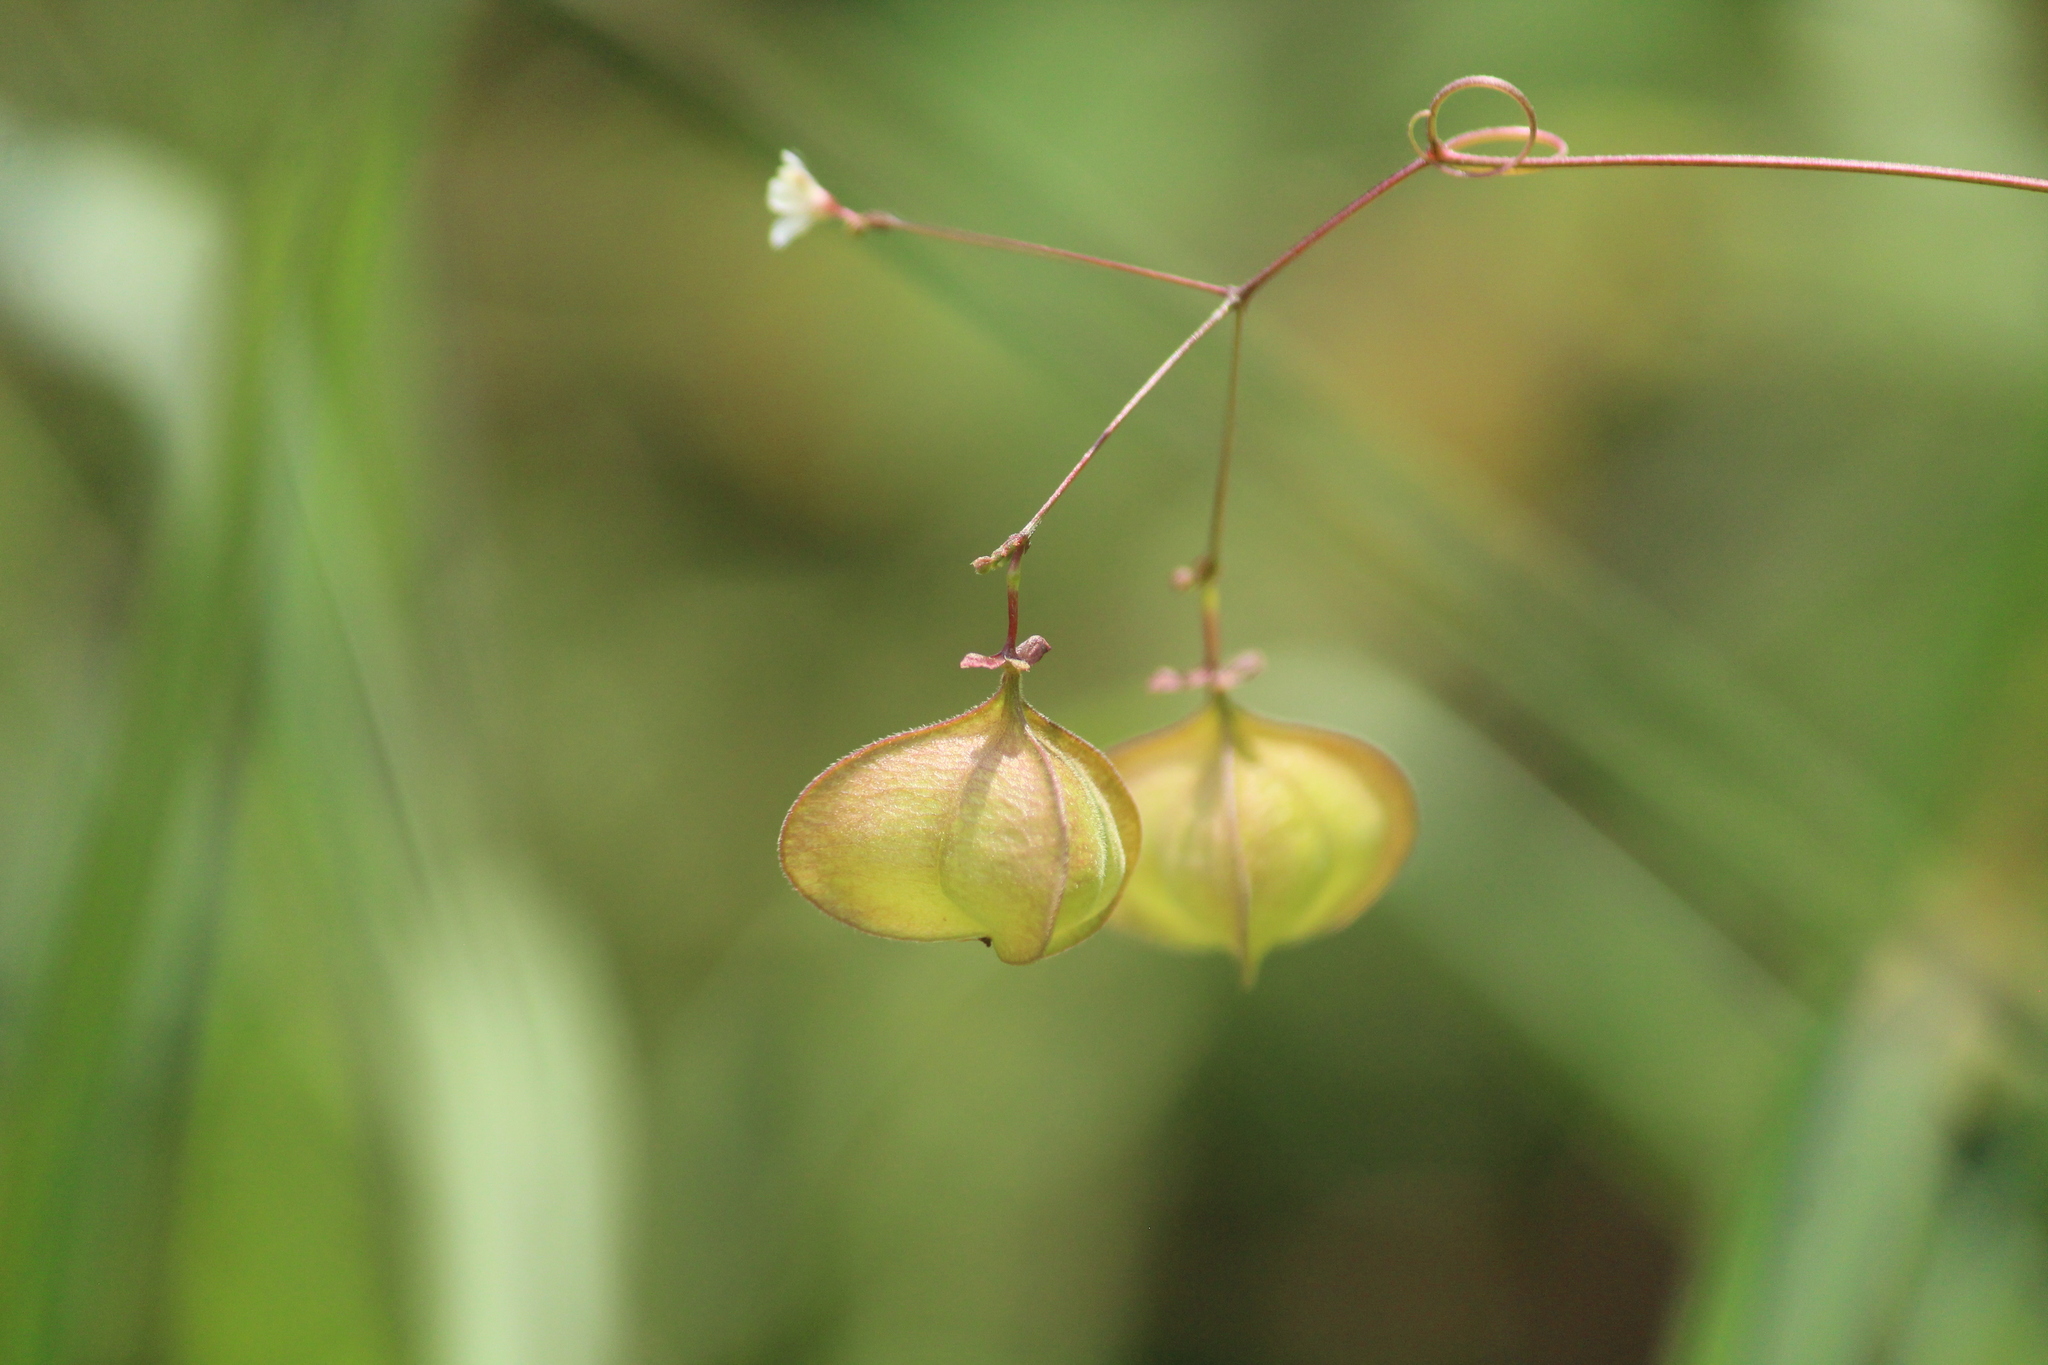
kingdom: Plantae
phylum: Tracheophyta
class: Magnoliopsida
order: Sapindales
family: Sapindaceae
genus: Cardiospermum
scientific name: Cardiospermum halicacabum
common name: Balloon vine
